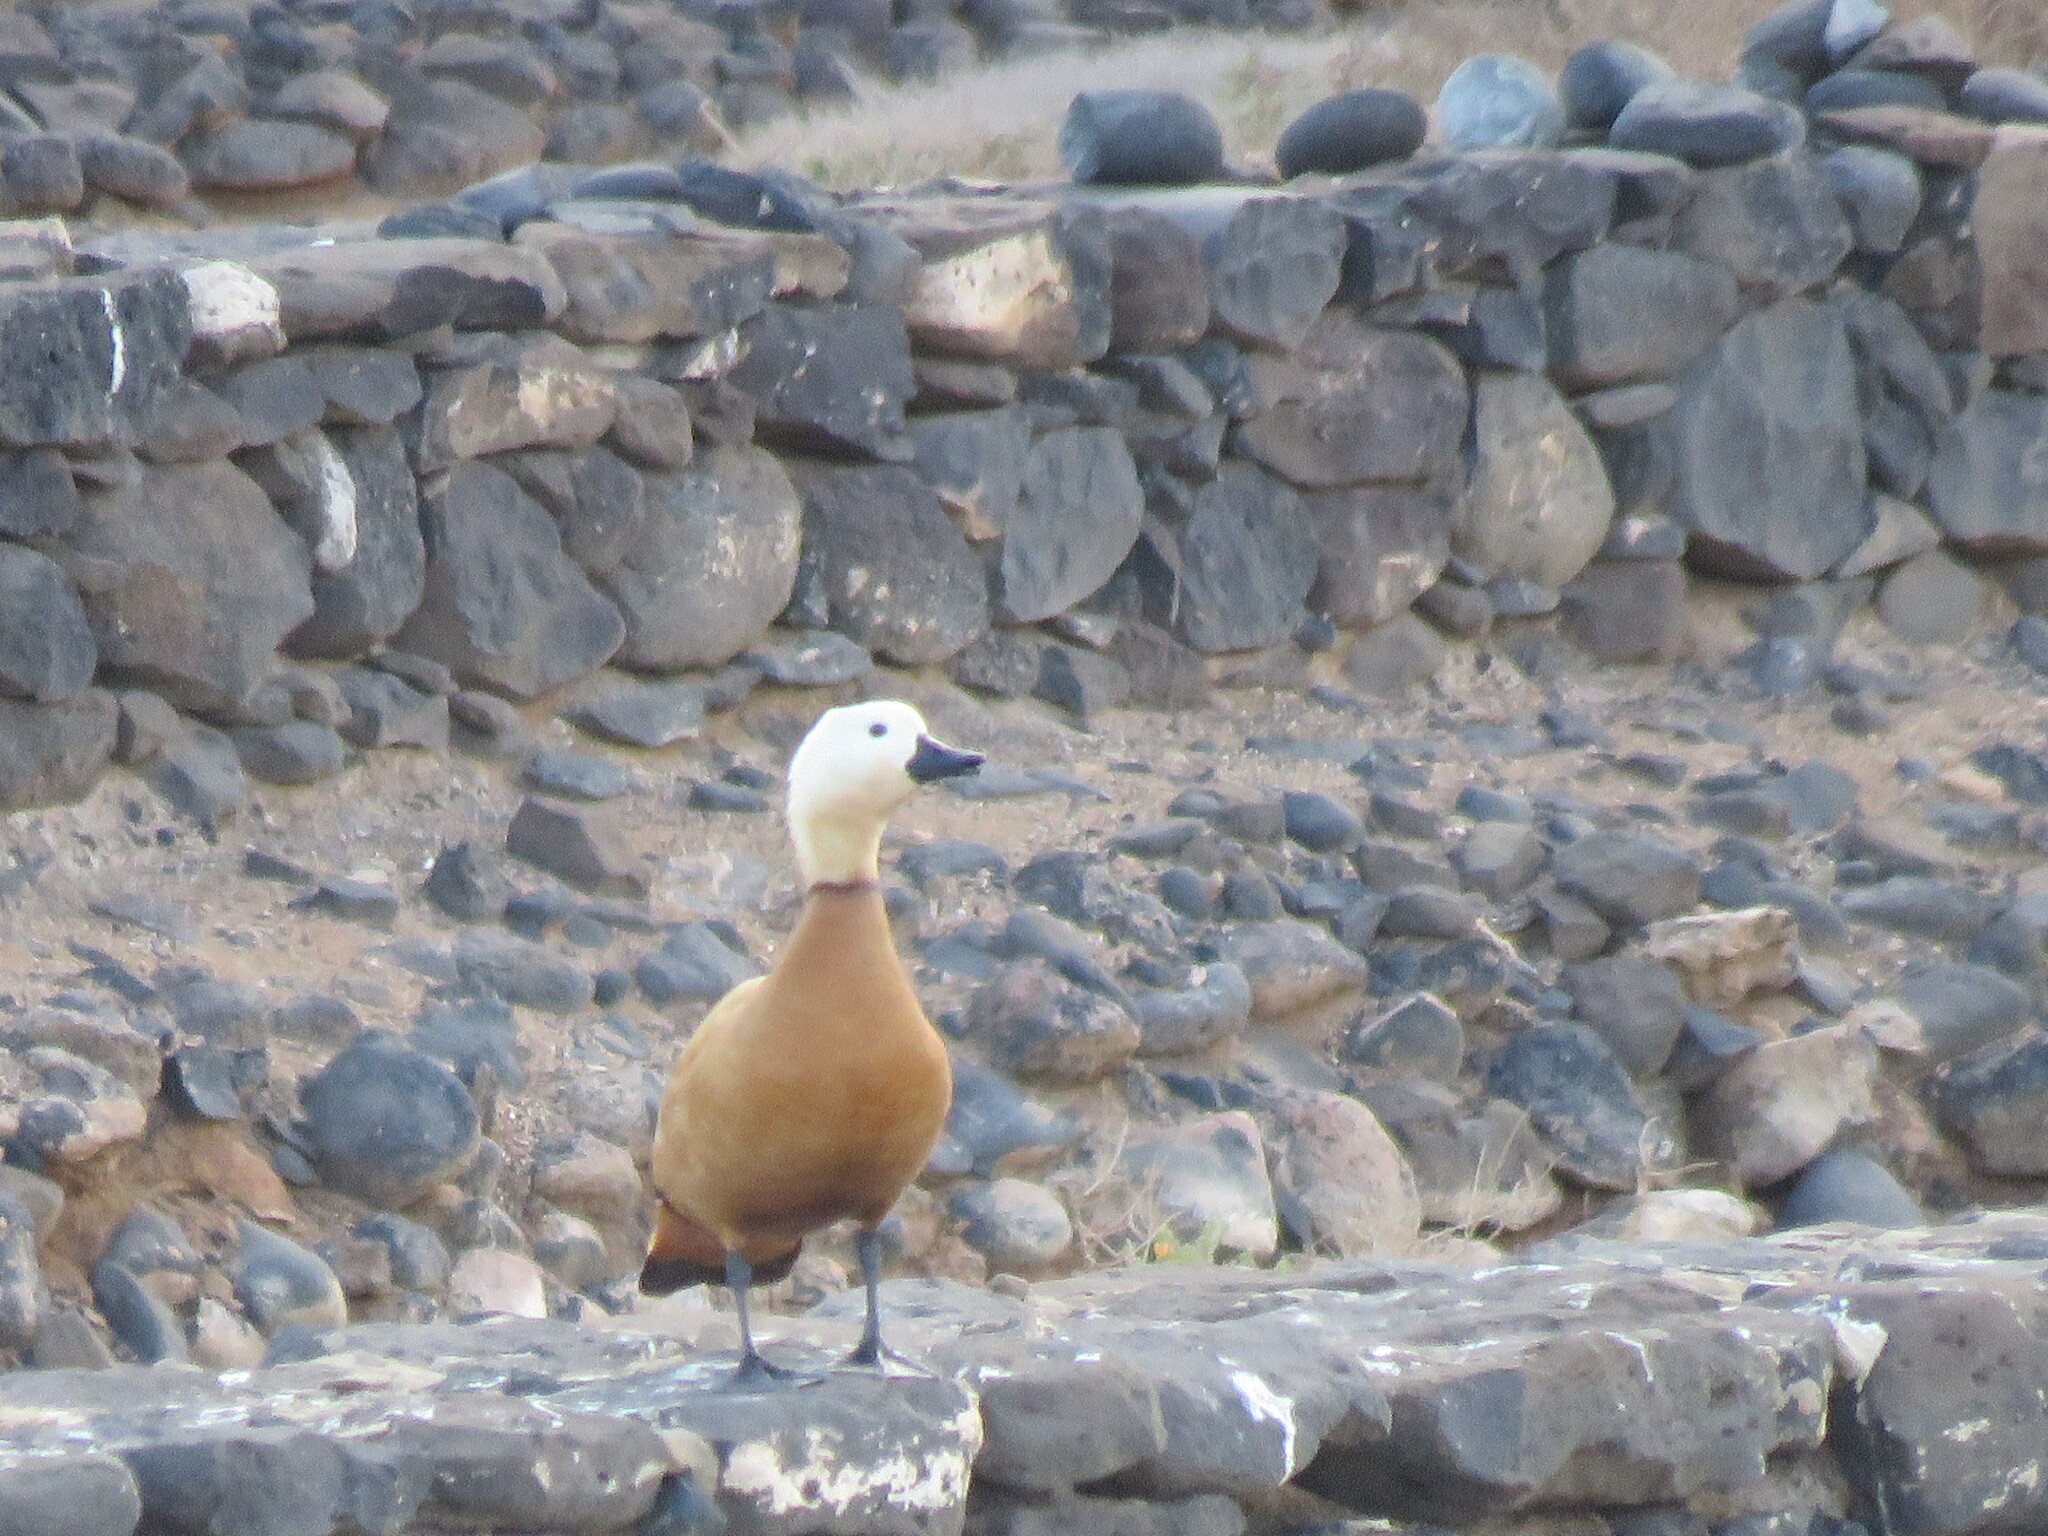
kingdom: Animalia
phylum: Chordata
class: Aves
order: Anseriformes
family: Anatidae
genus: Tadorna
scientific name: Tadorna ferruginea
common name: Ruddy shelduck
